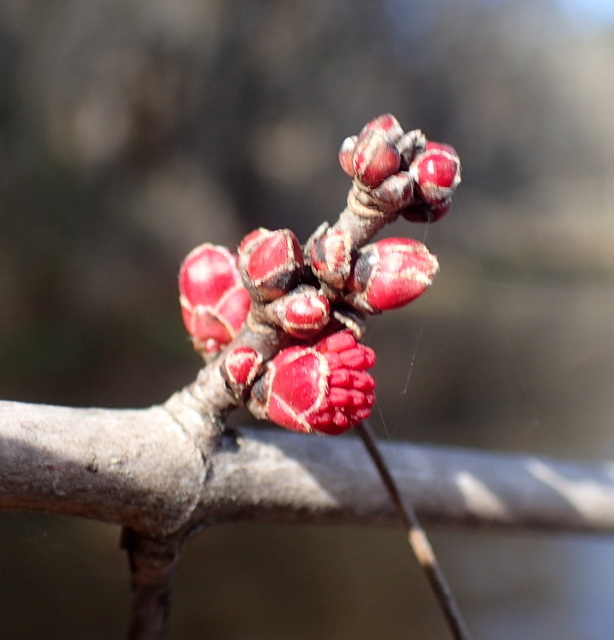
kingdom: Plantae
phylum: Tracheophyta
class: Magnoliopsida
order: Sapindales
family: Sapindaceae
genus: Acer
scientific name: Acer rubrum
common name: Red maple
